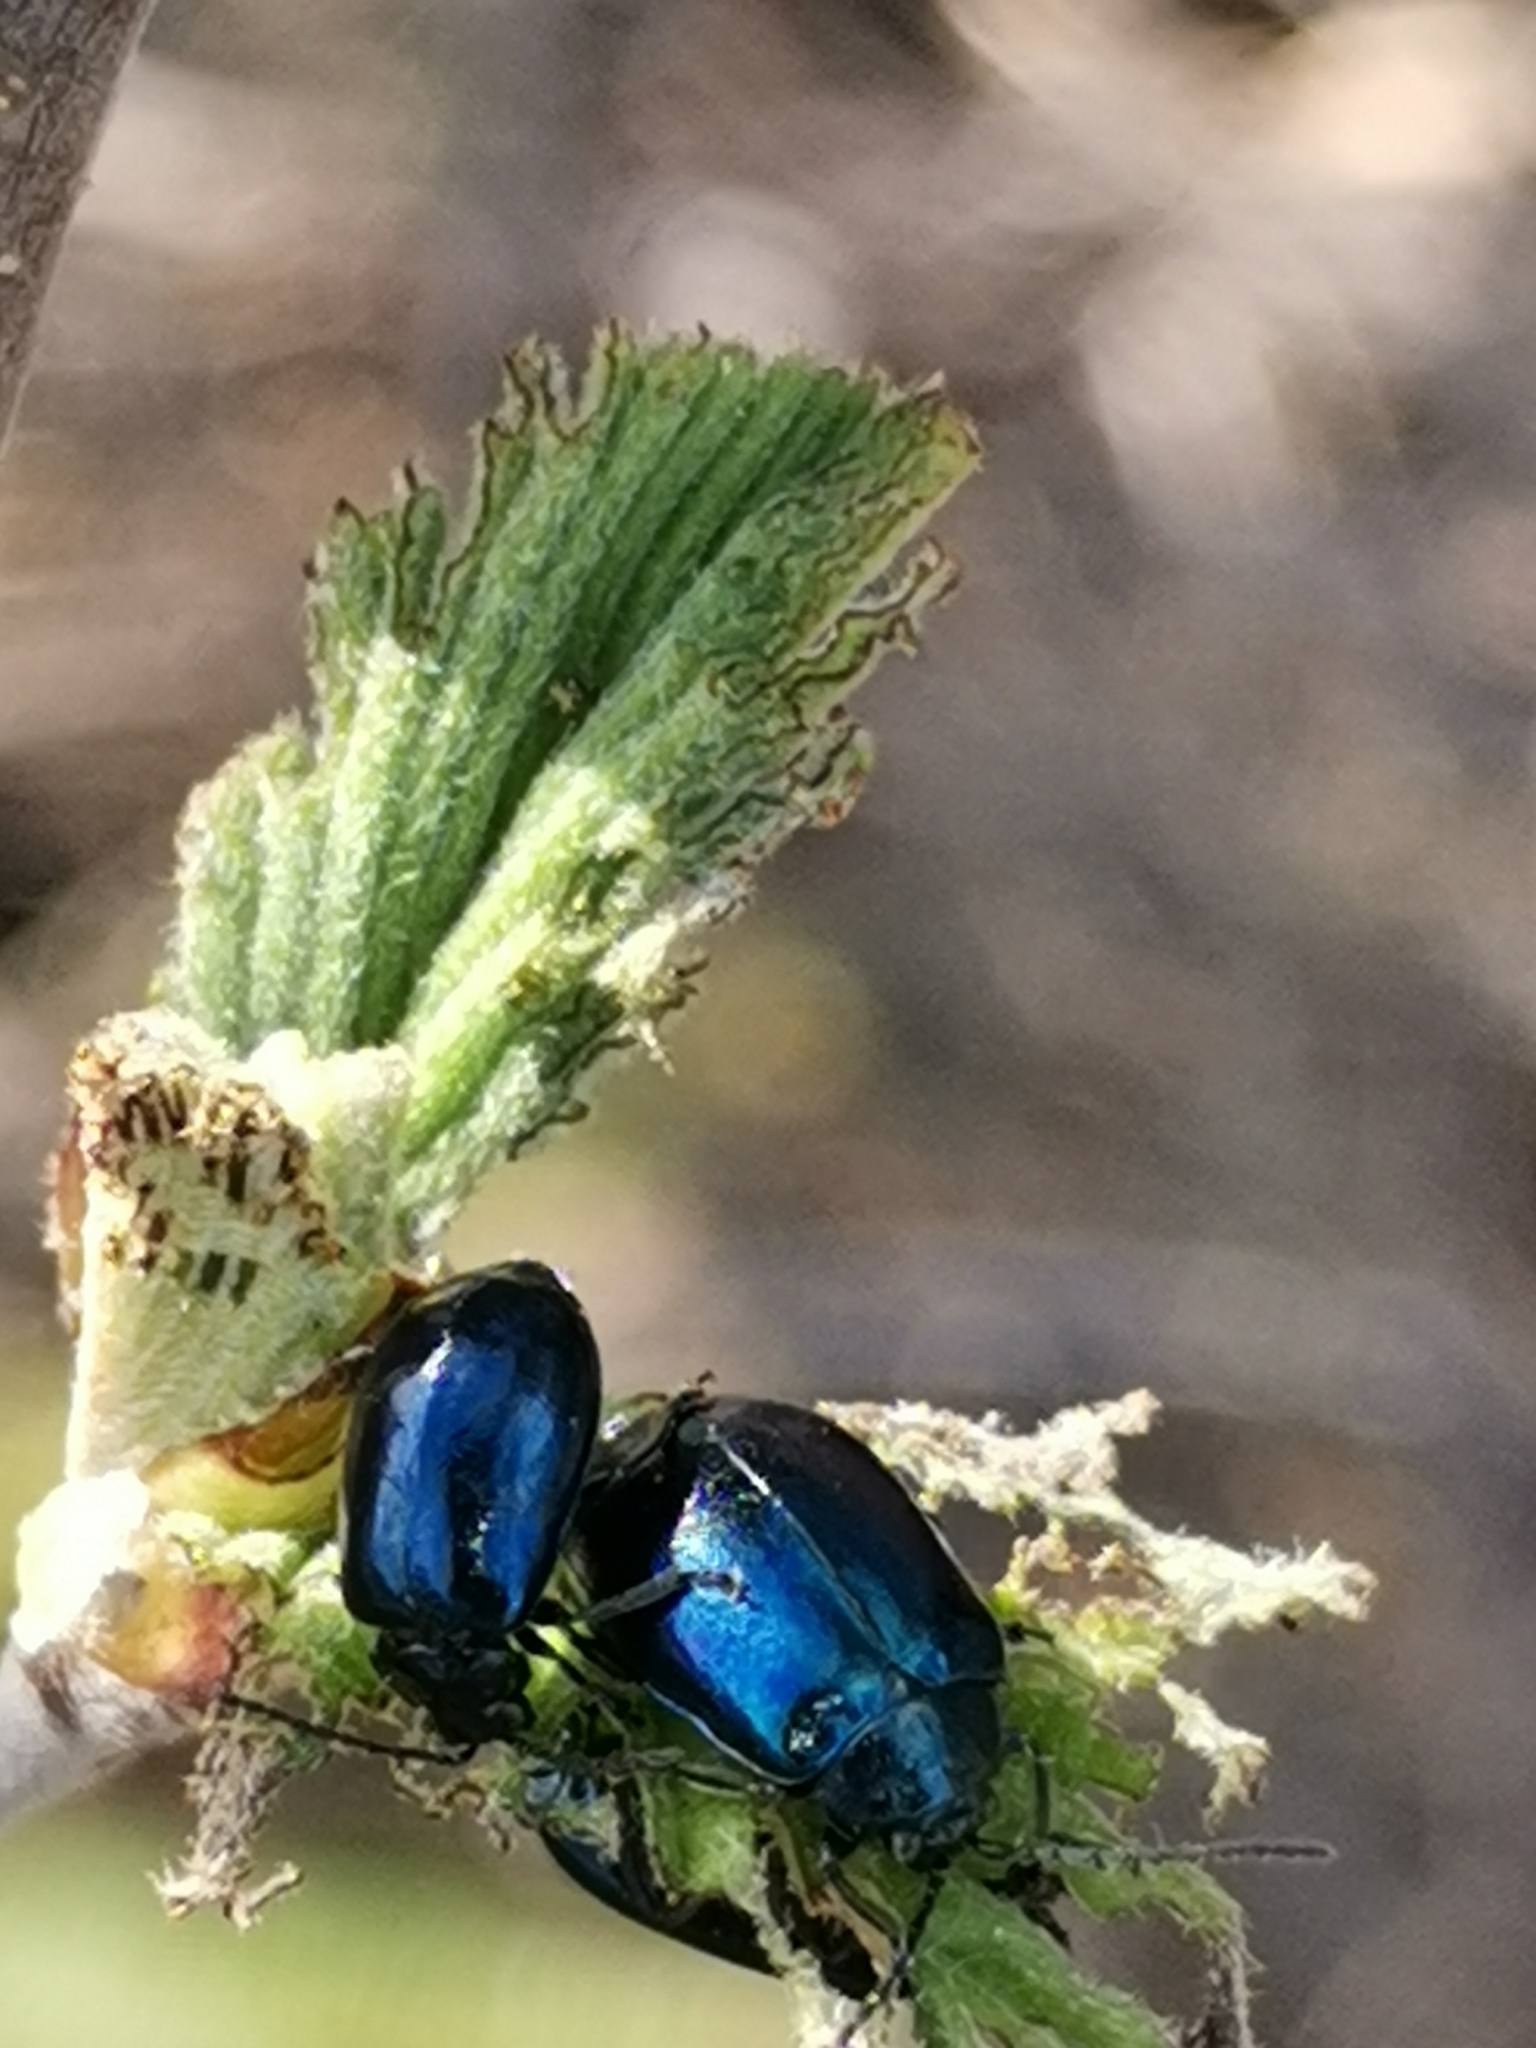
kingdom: Animalia
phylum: Arthropoda
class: Insecta
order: Coleoptera
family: Chrysomelidae
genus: Agelastica
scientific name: Agelastica alni
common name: Alder leaf beetle
